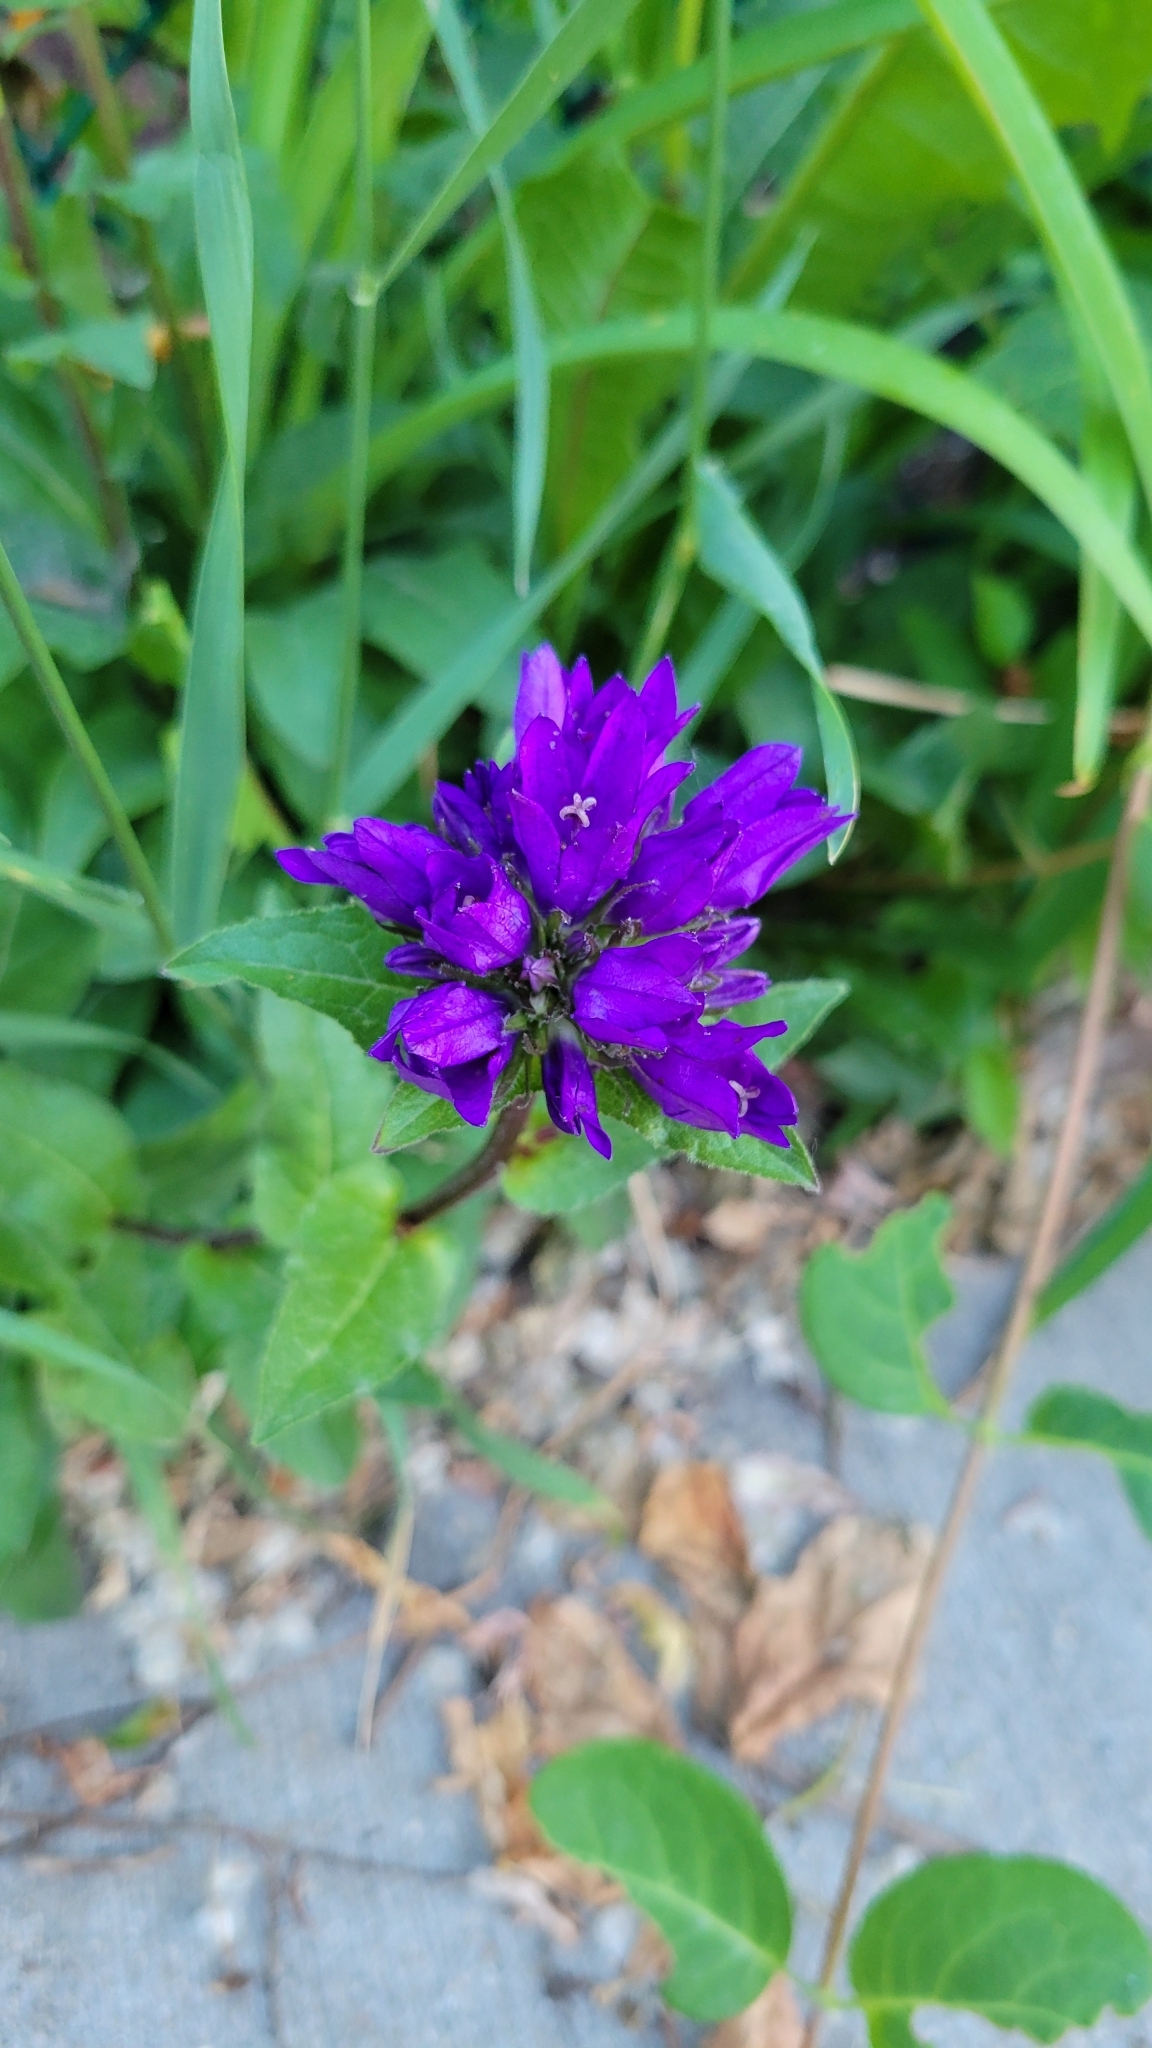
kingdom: Plantae
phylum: Tracheophyta
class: Magnoliopsida
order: Asterales
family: Campanulaceae
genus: Campanula
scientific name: Campanula glomerata
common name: Clustered bellflower
